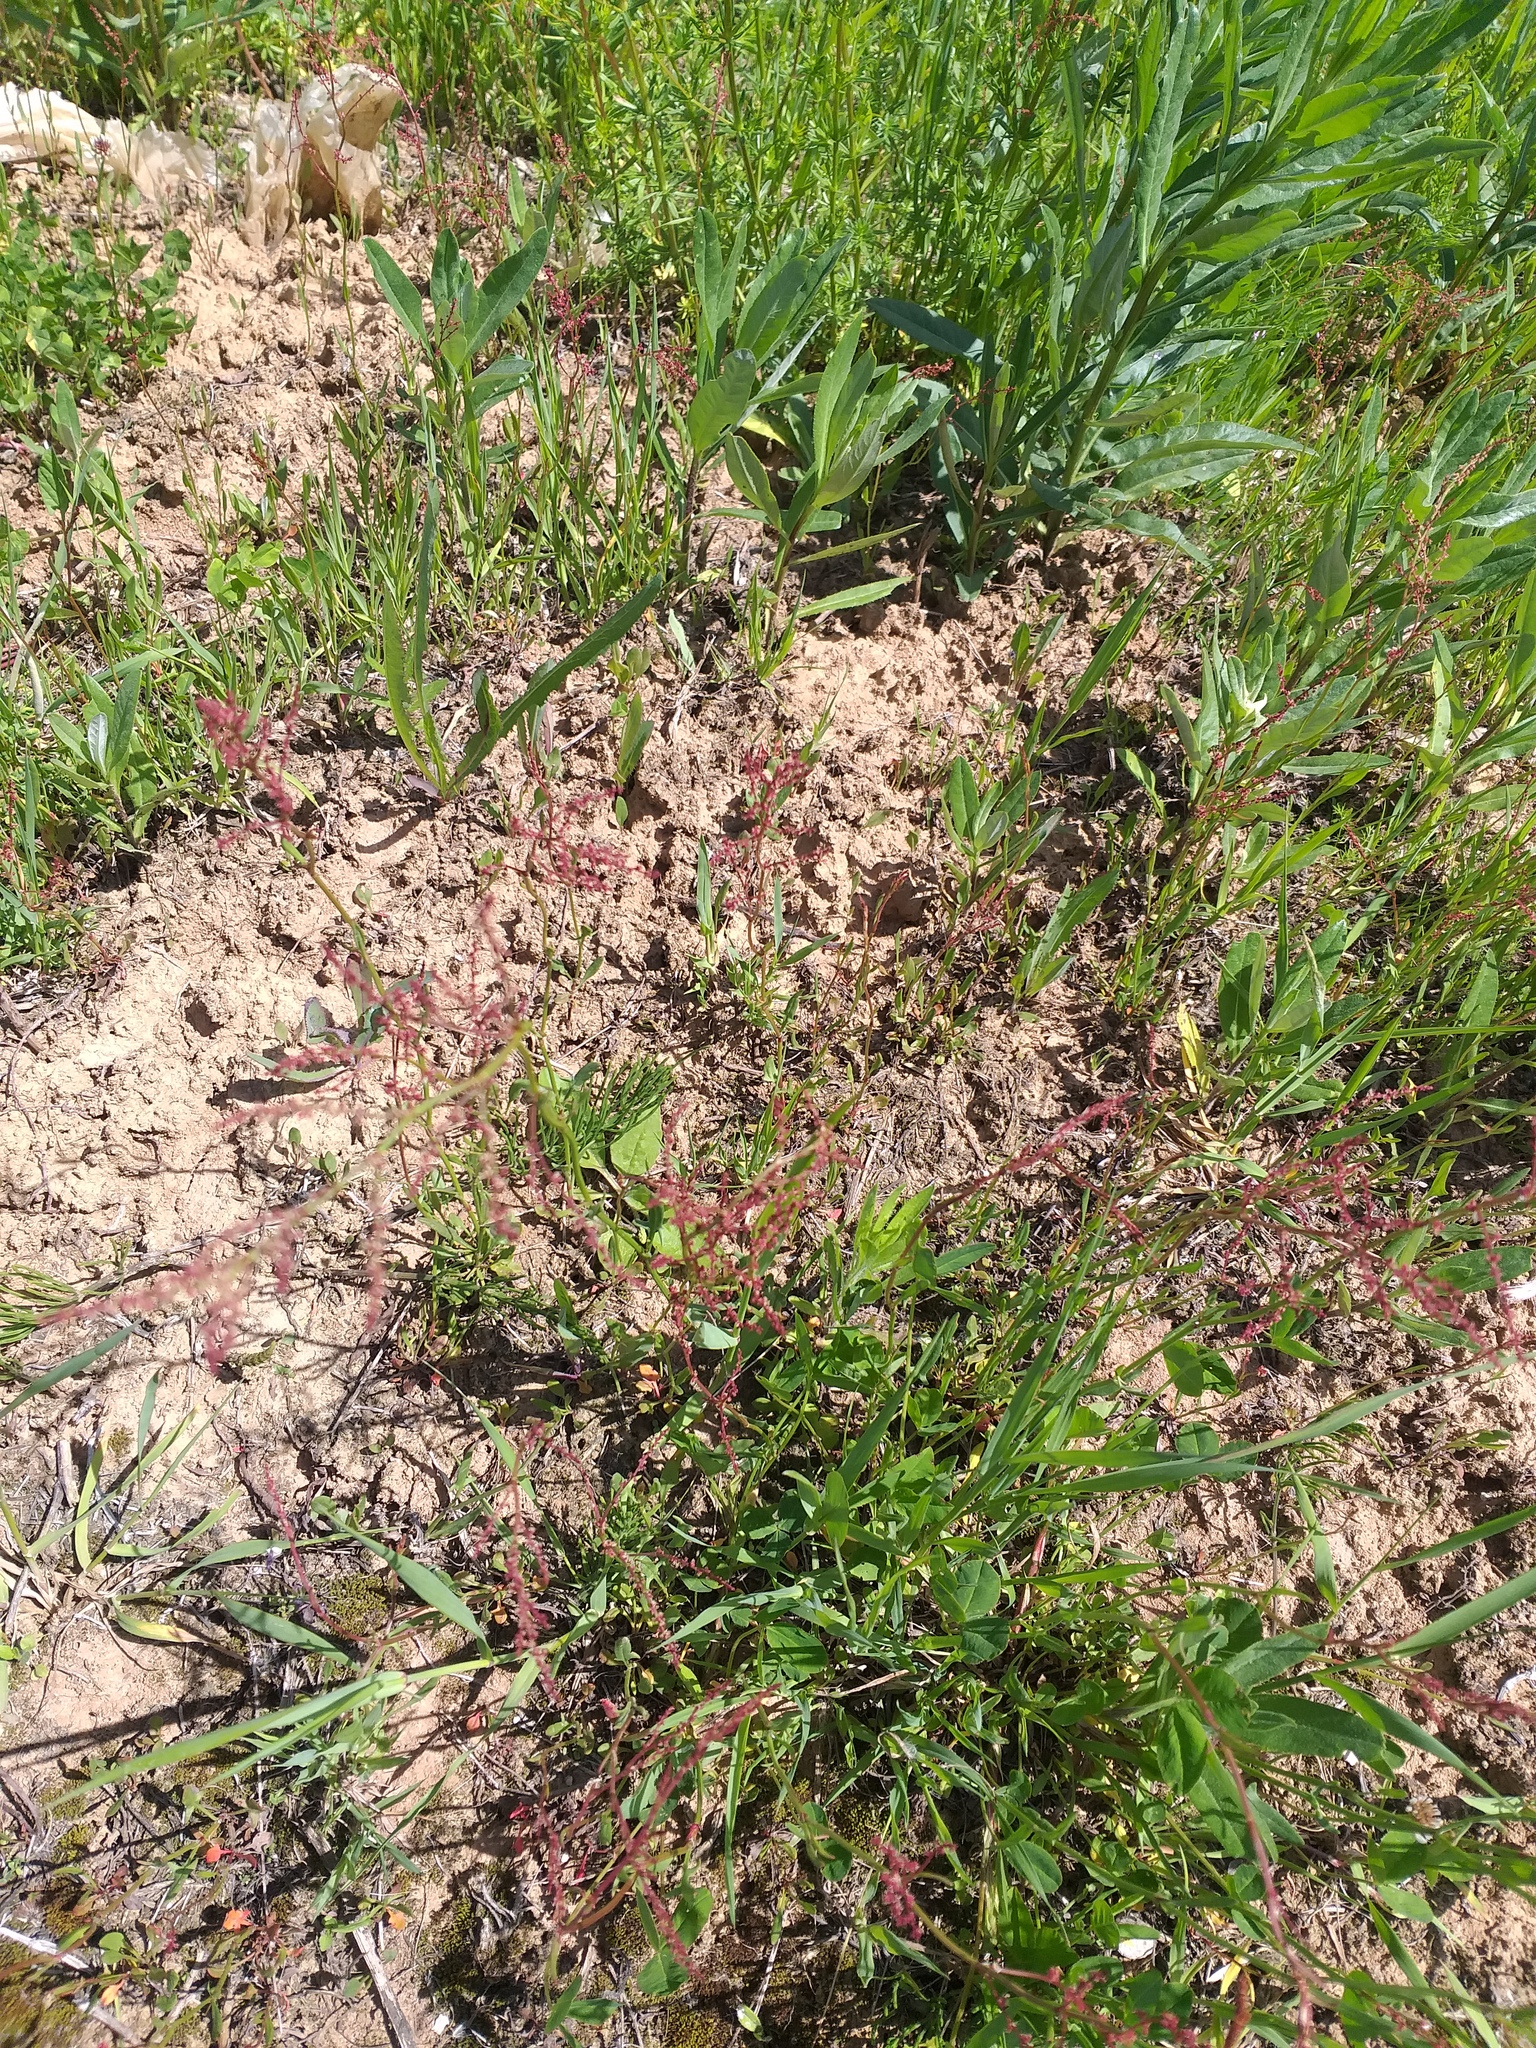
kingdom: Plantae
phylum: Tracheophyta
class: Magnoliopsida
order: Caryophyllales
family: Polygonaceae
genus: Rumex
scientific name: Rumex acetosella
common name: Common sheep sorrel
